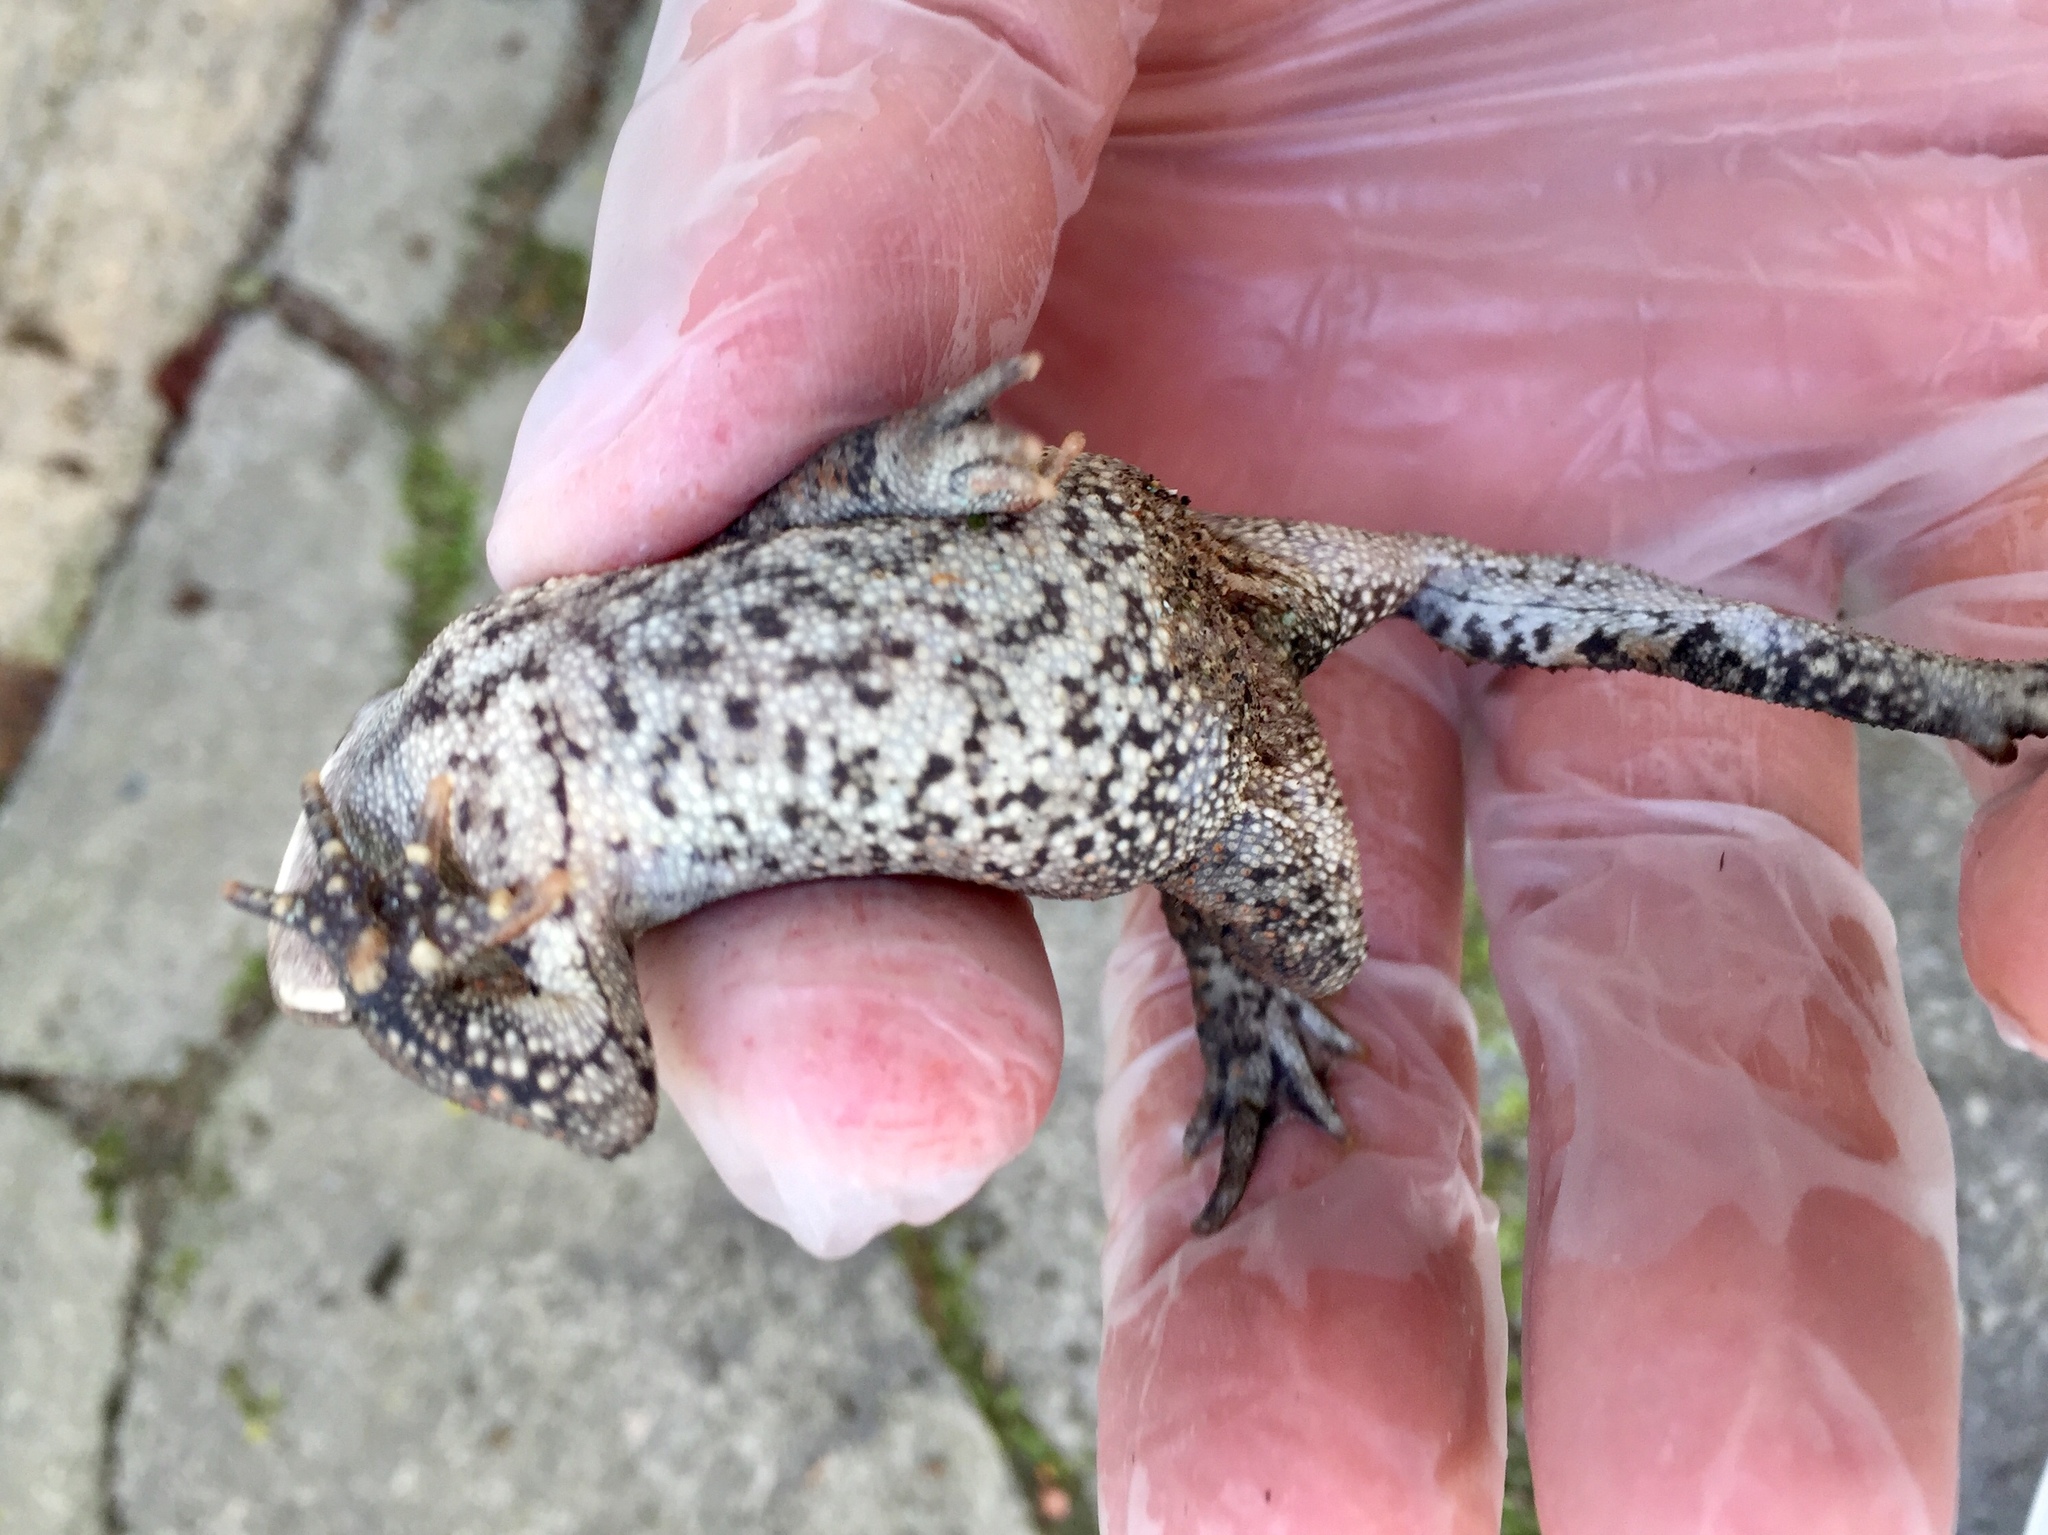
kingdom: Animalia
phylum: Chordata
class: Amphibia
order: Anura
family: Bufonidae
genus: Anaxyrus
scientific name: Anaxyrus americanus
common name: American toad
